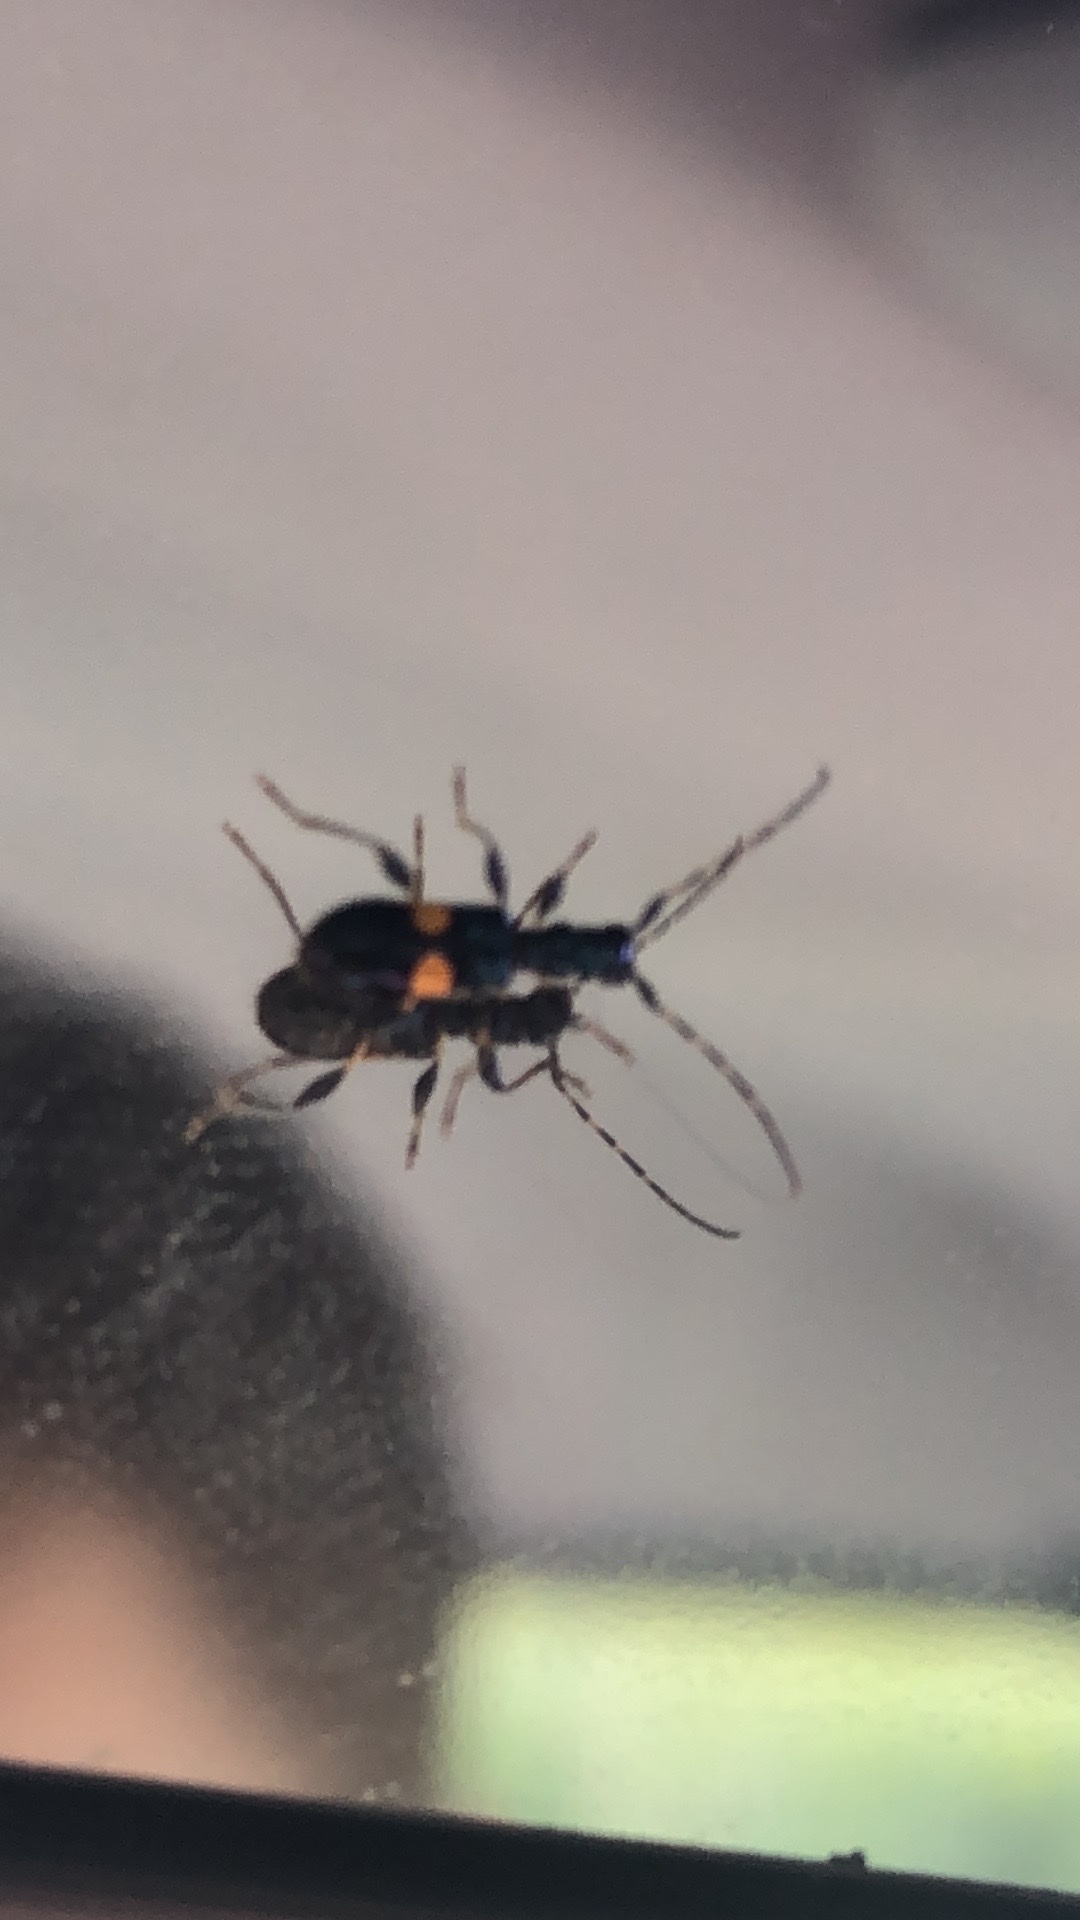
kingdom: Animalia
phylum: Arthropoda
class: Insecta
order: Coleoptera
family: Cerambycidae
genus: Zorion
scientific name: Zorion guttigerum
